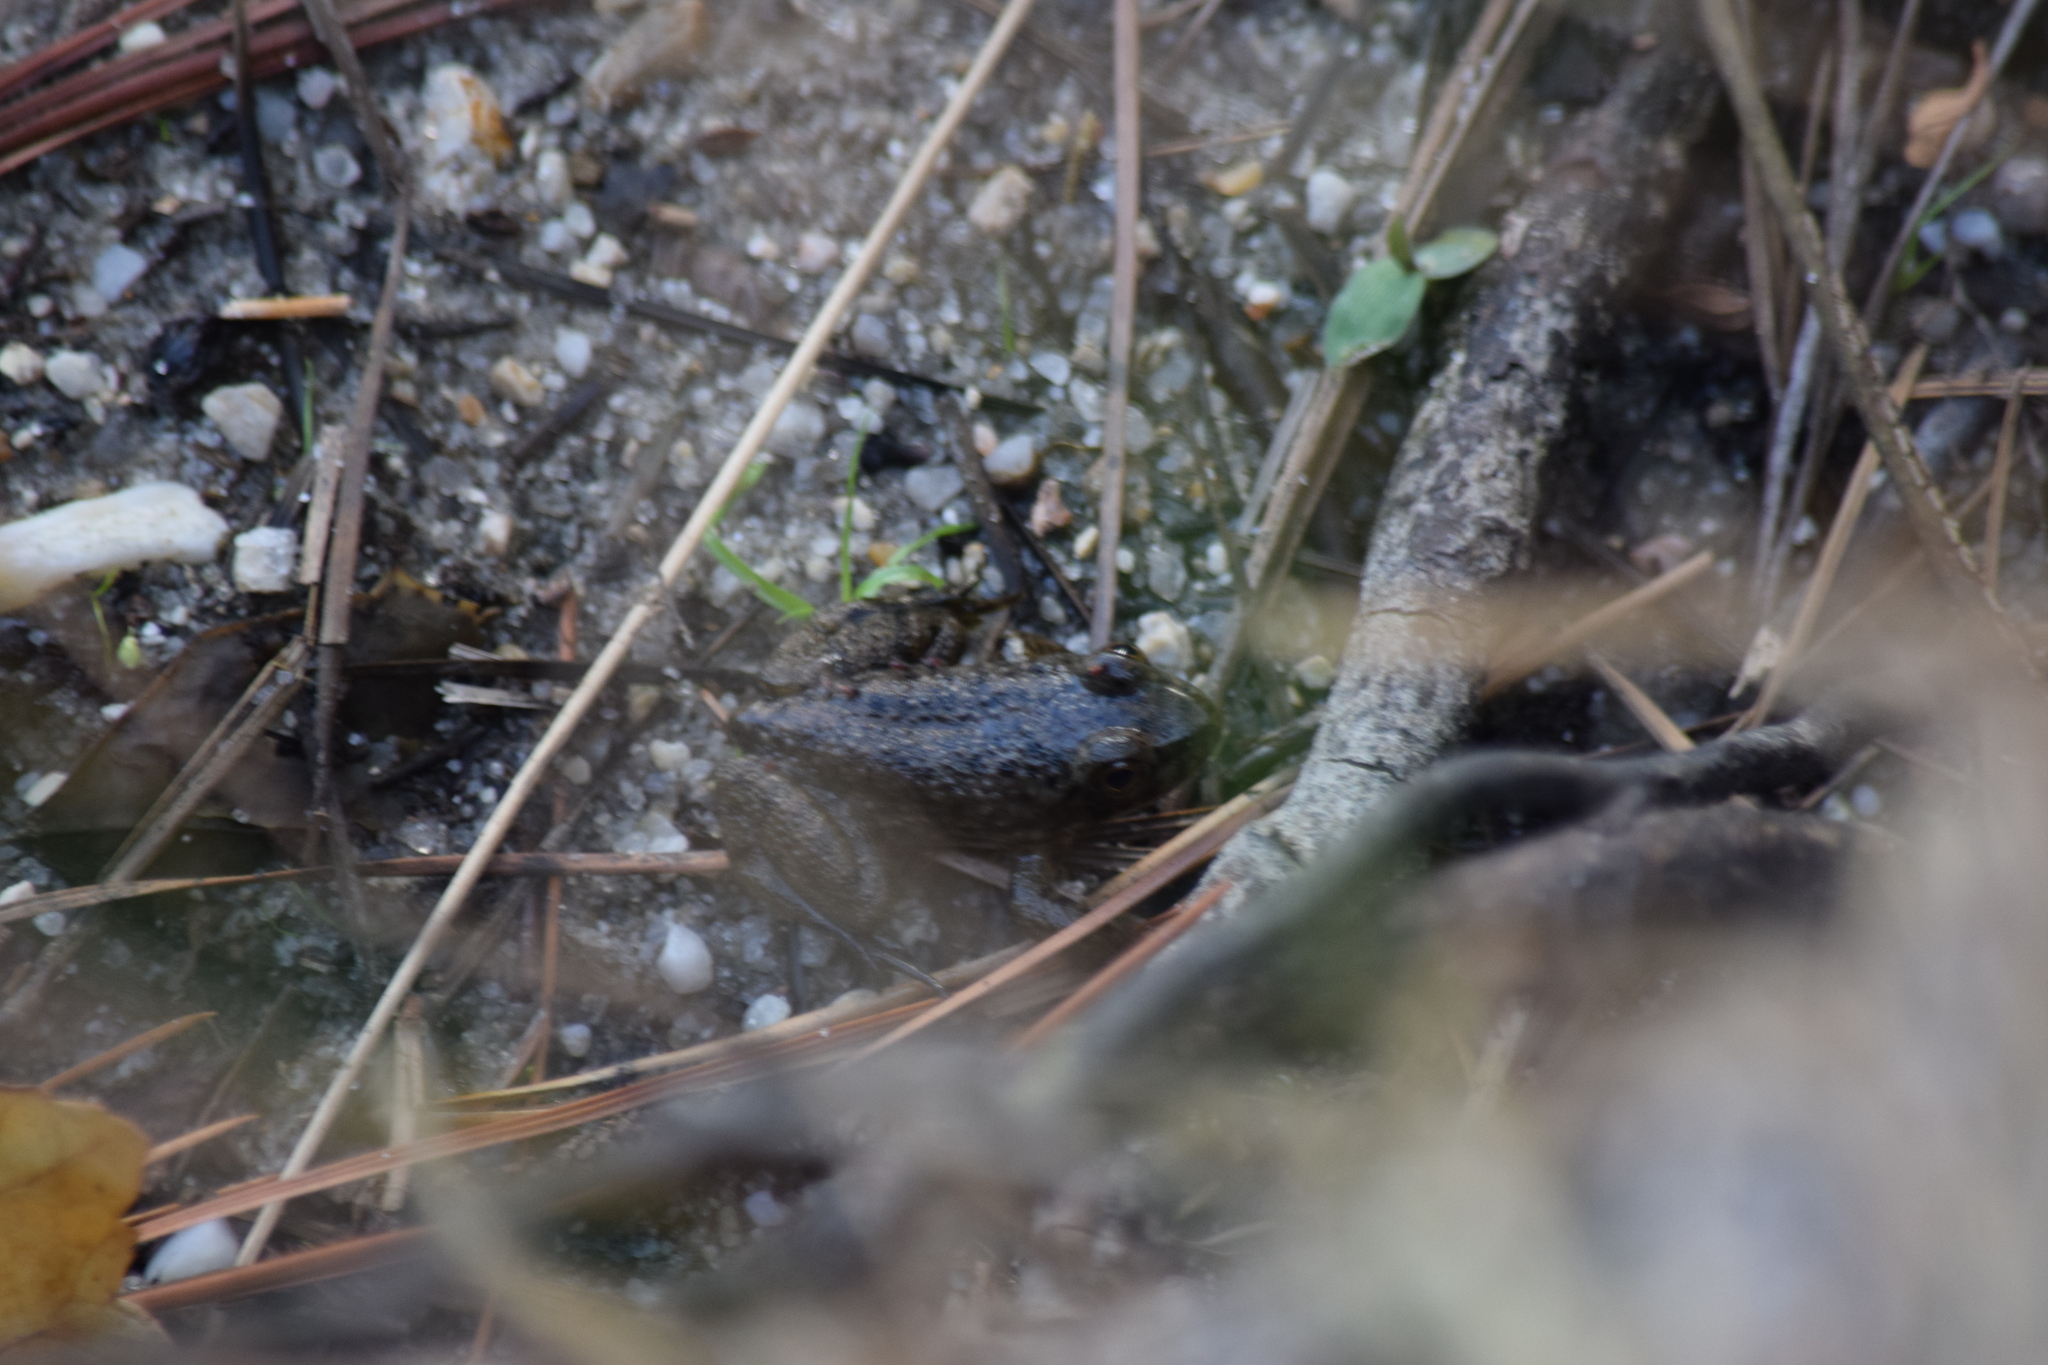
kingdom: Animalia
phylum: Chordata
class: Amphibia
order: Anura
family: Ranidae
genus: Lithobates
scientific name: Lithobates catesbeianus
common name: American bullfrog
